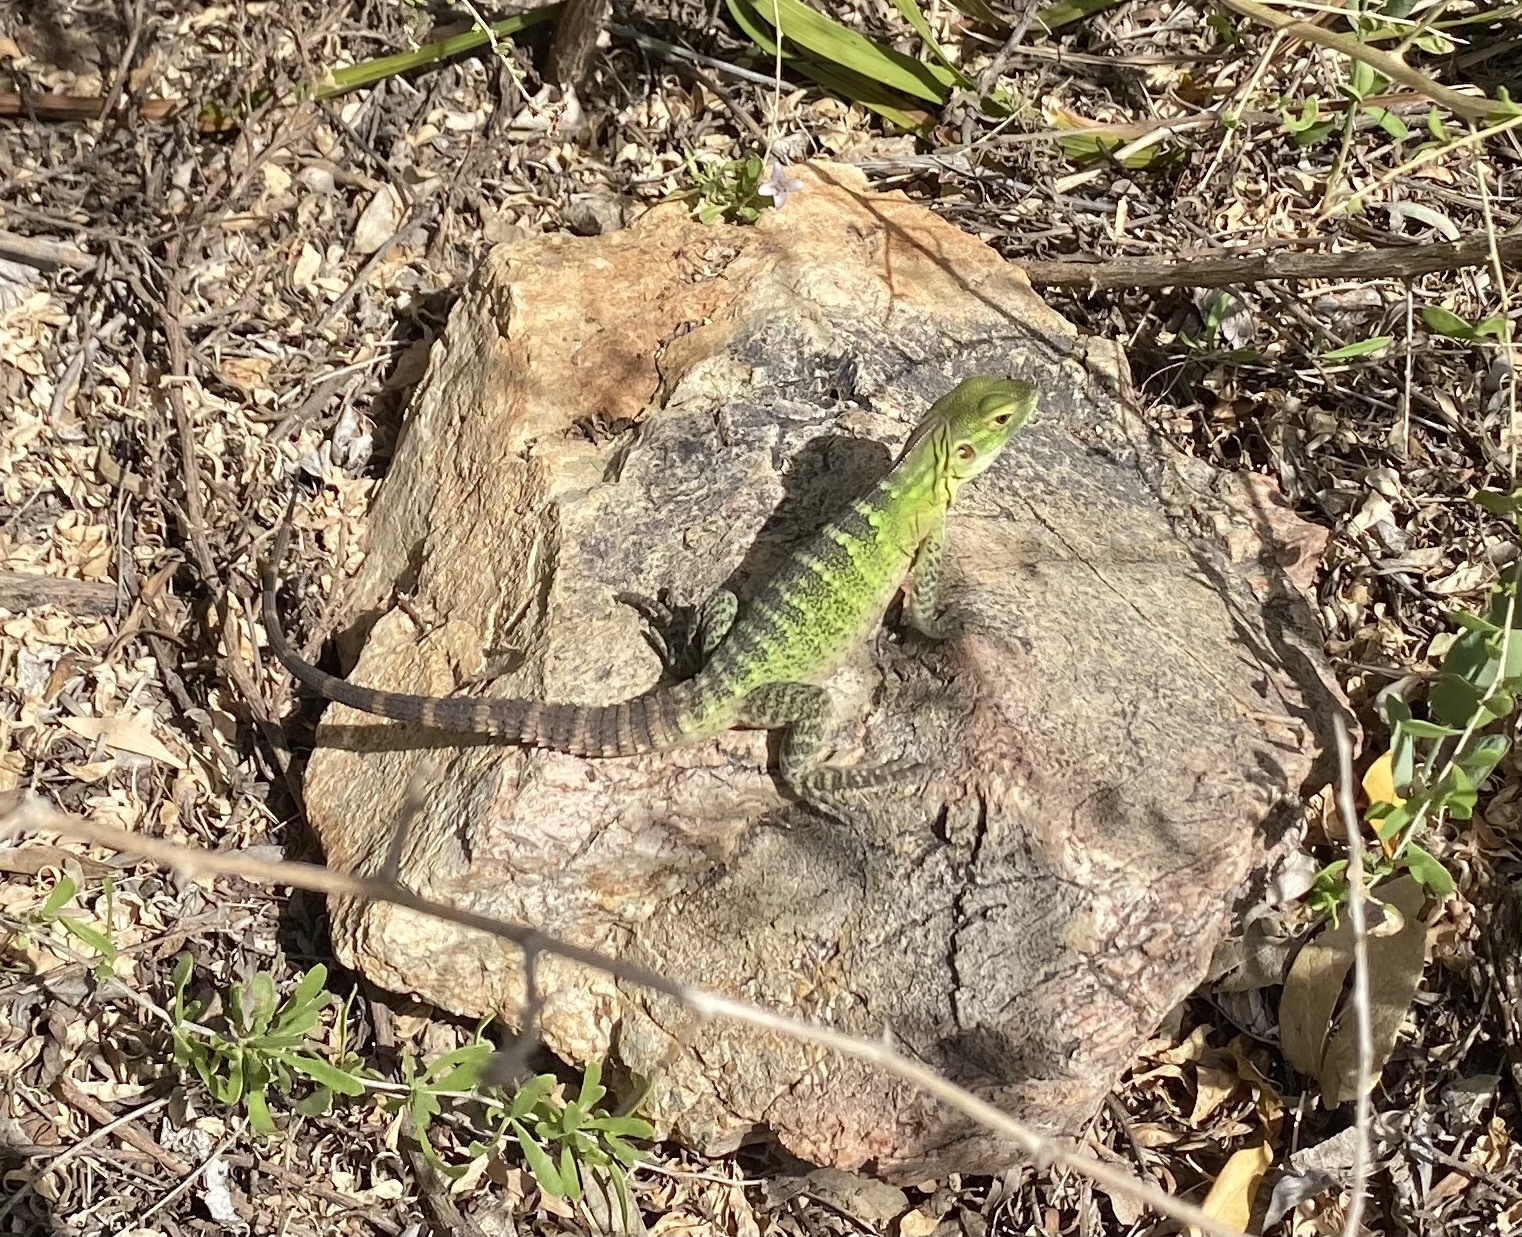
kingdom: Animalia
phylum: Chordata
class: Squamata
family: Iguanidae
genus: Ctenosaura
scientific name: Ctenosaura
